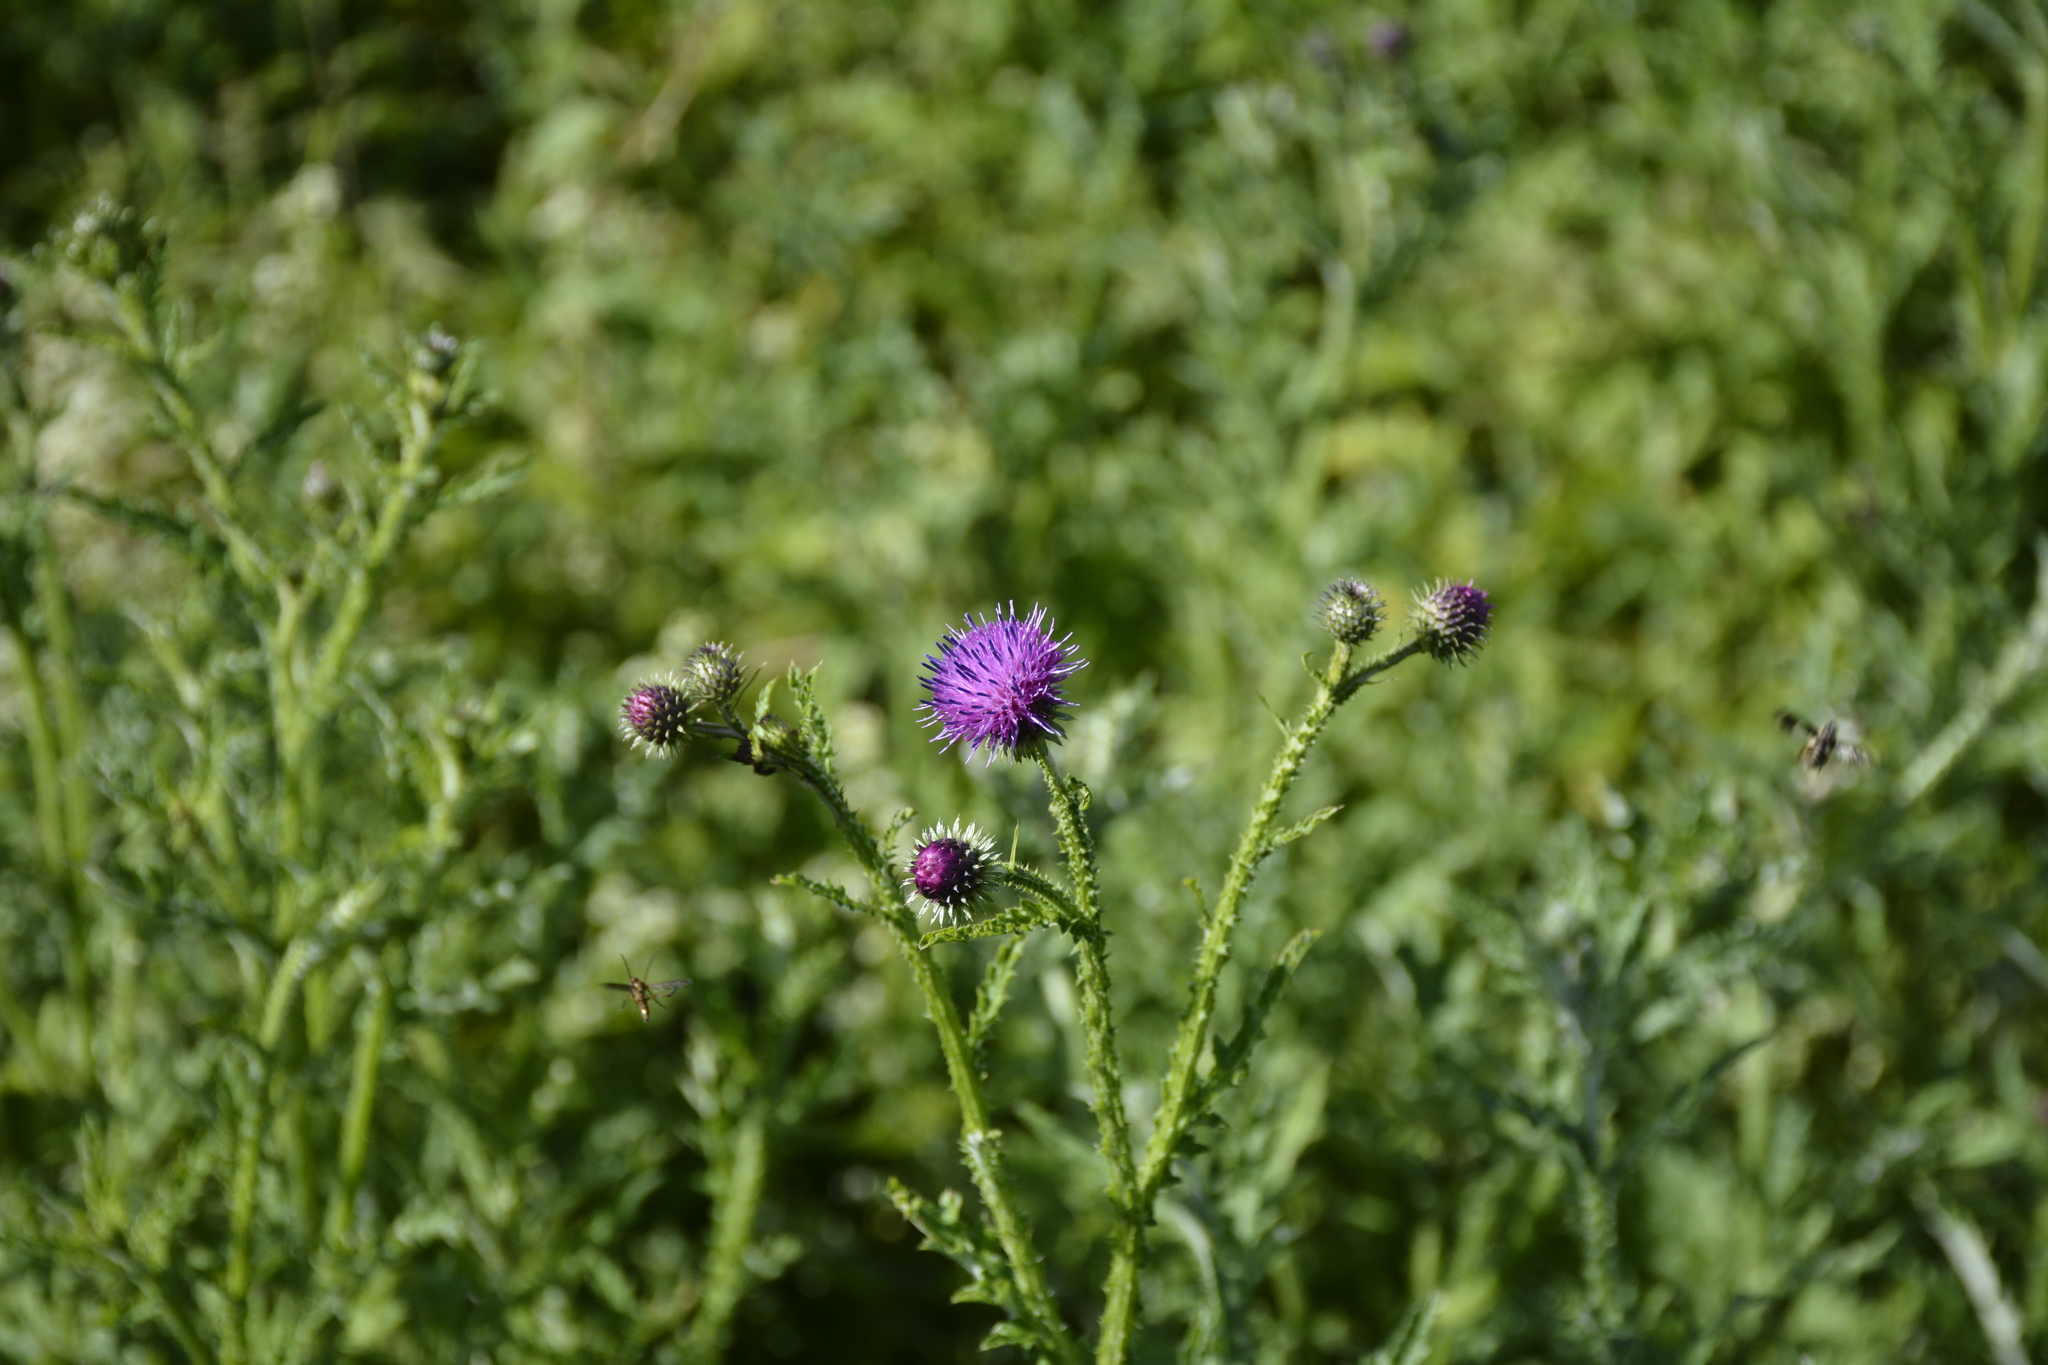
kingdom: Plantae
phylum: Tracheophyta
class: Magnoliopsida
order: Asterales
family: Asteraceae
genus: Carduus
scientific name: Carduus crispus
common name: Welted thistle
